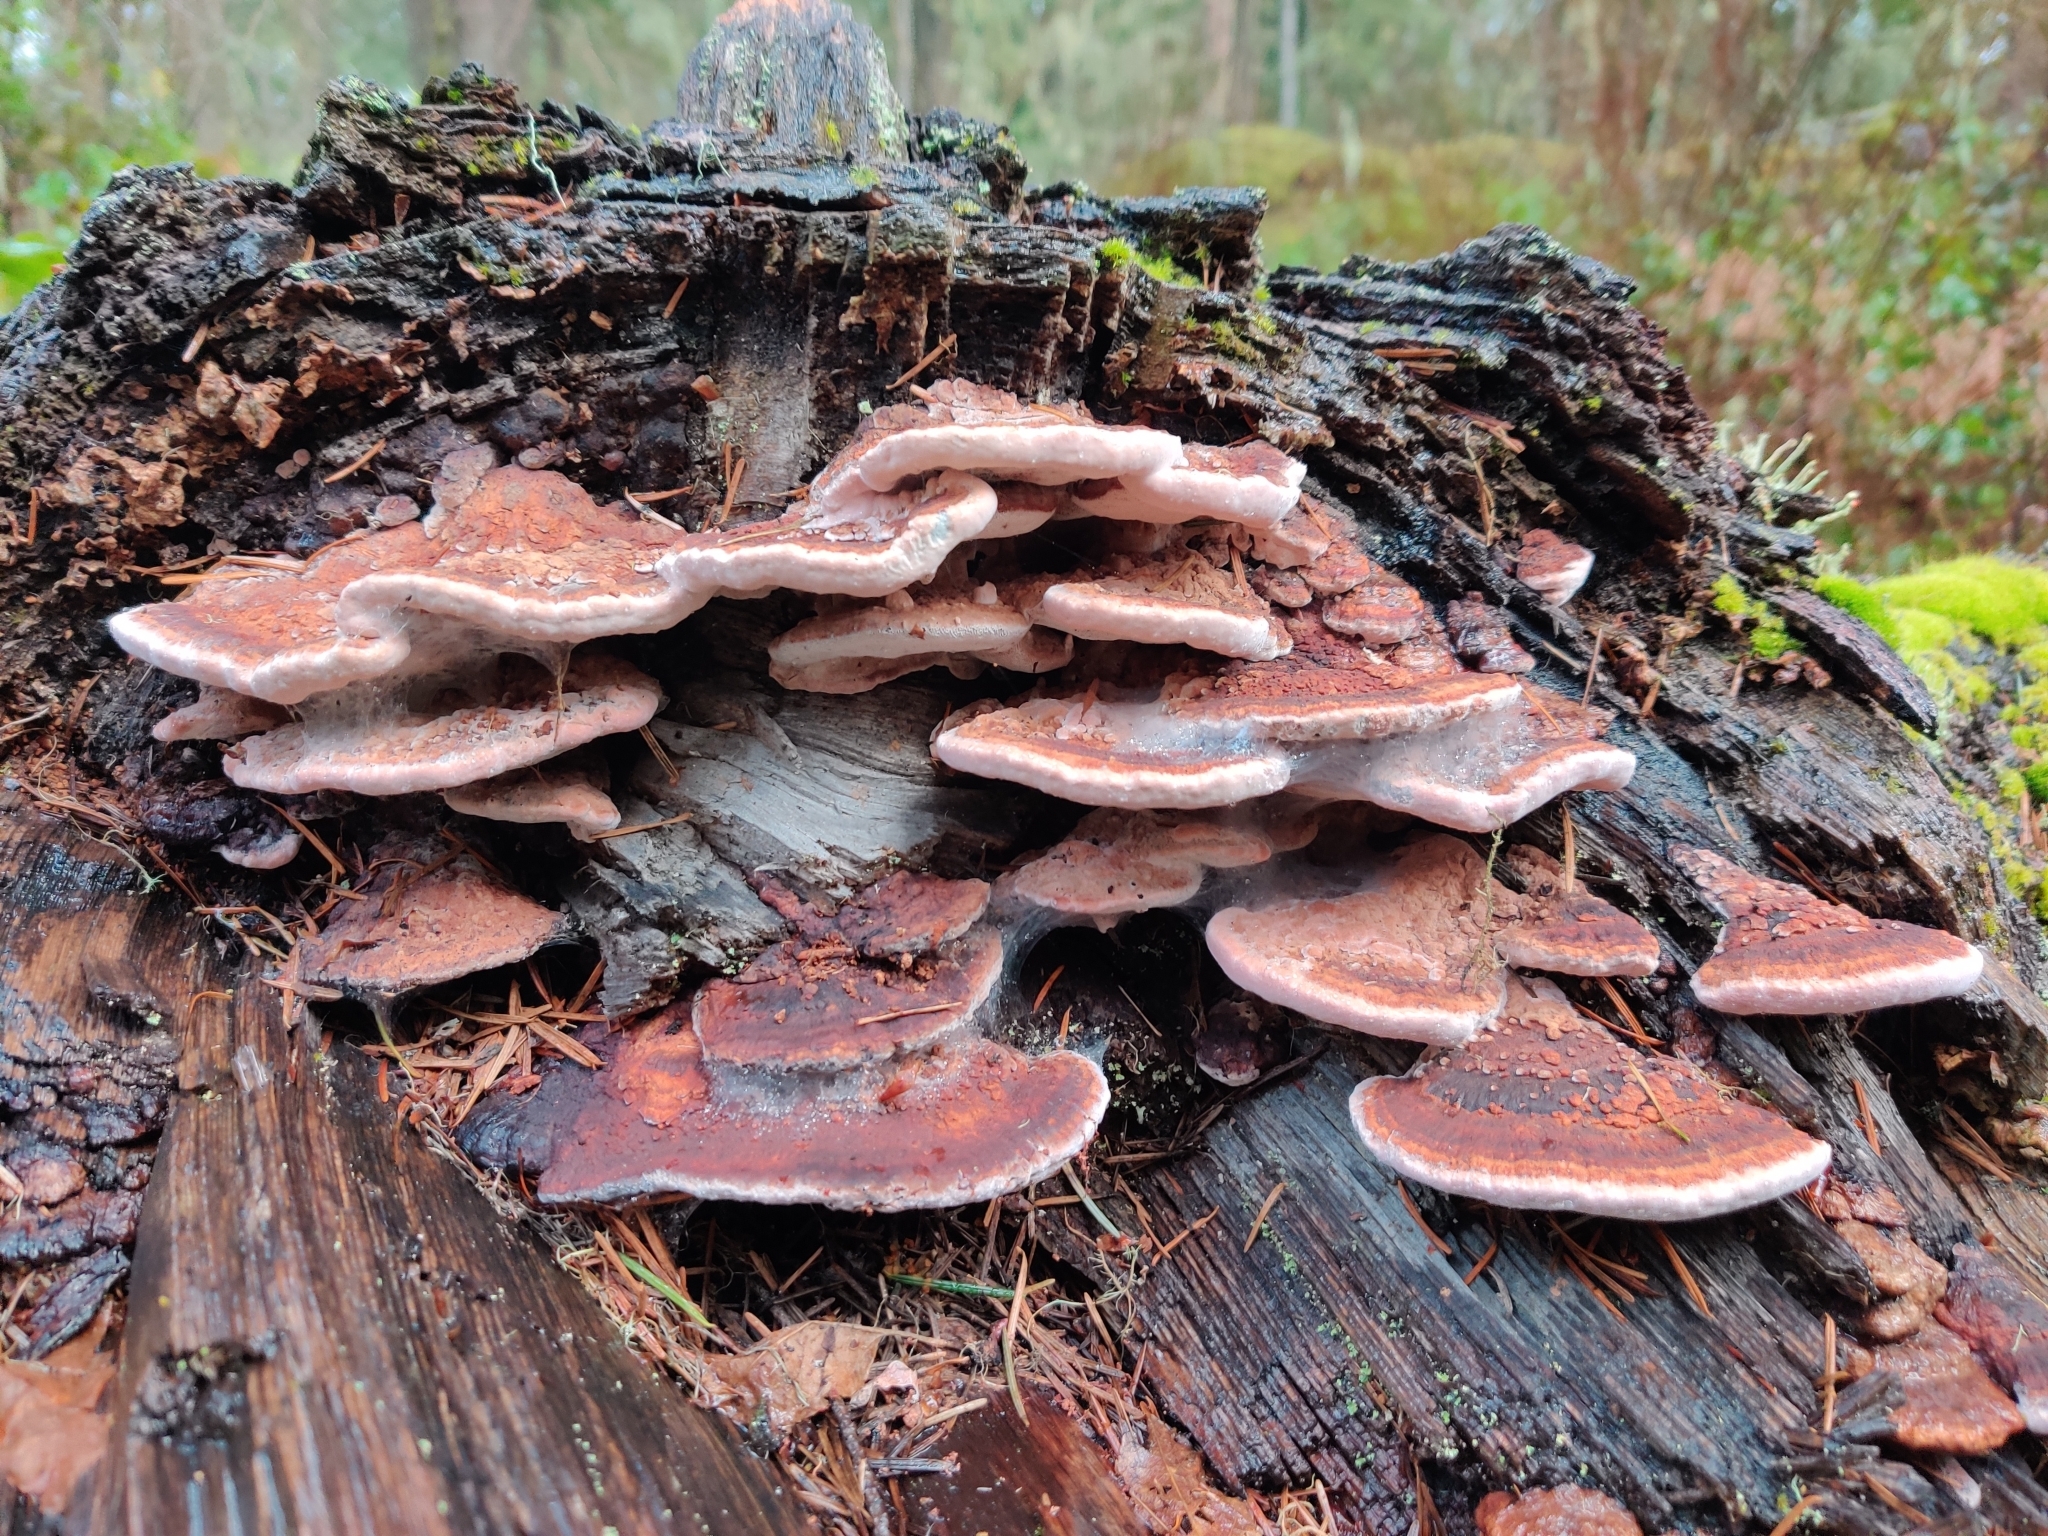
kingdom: Fungi
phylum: Basidiomycota
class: Agaricomycetes
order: Polyporales
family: Fomitopsidaceae
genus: Rhodofomes
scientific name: Rhodofomes cajanderi
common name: Rosy conk
